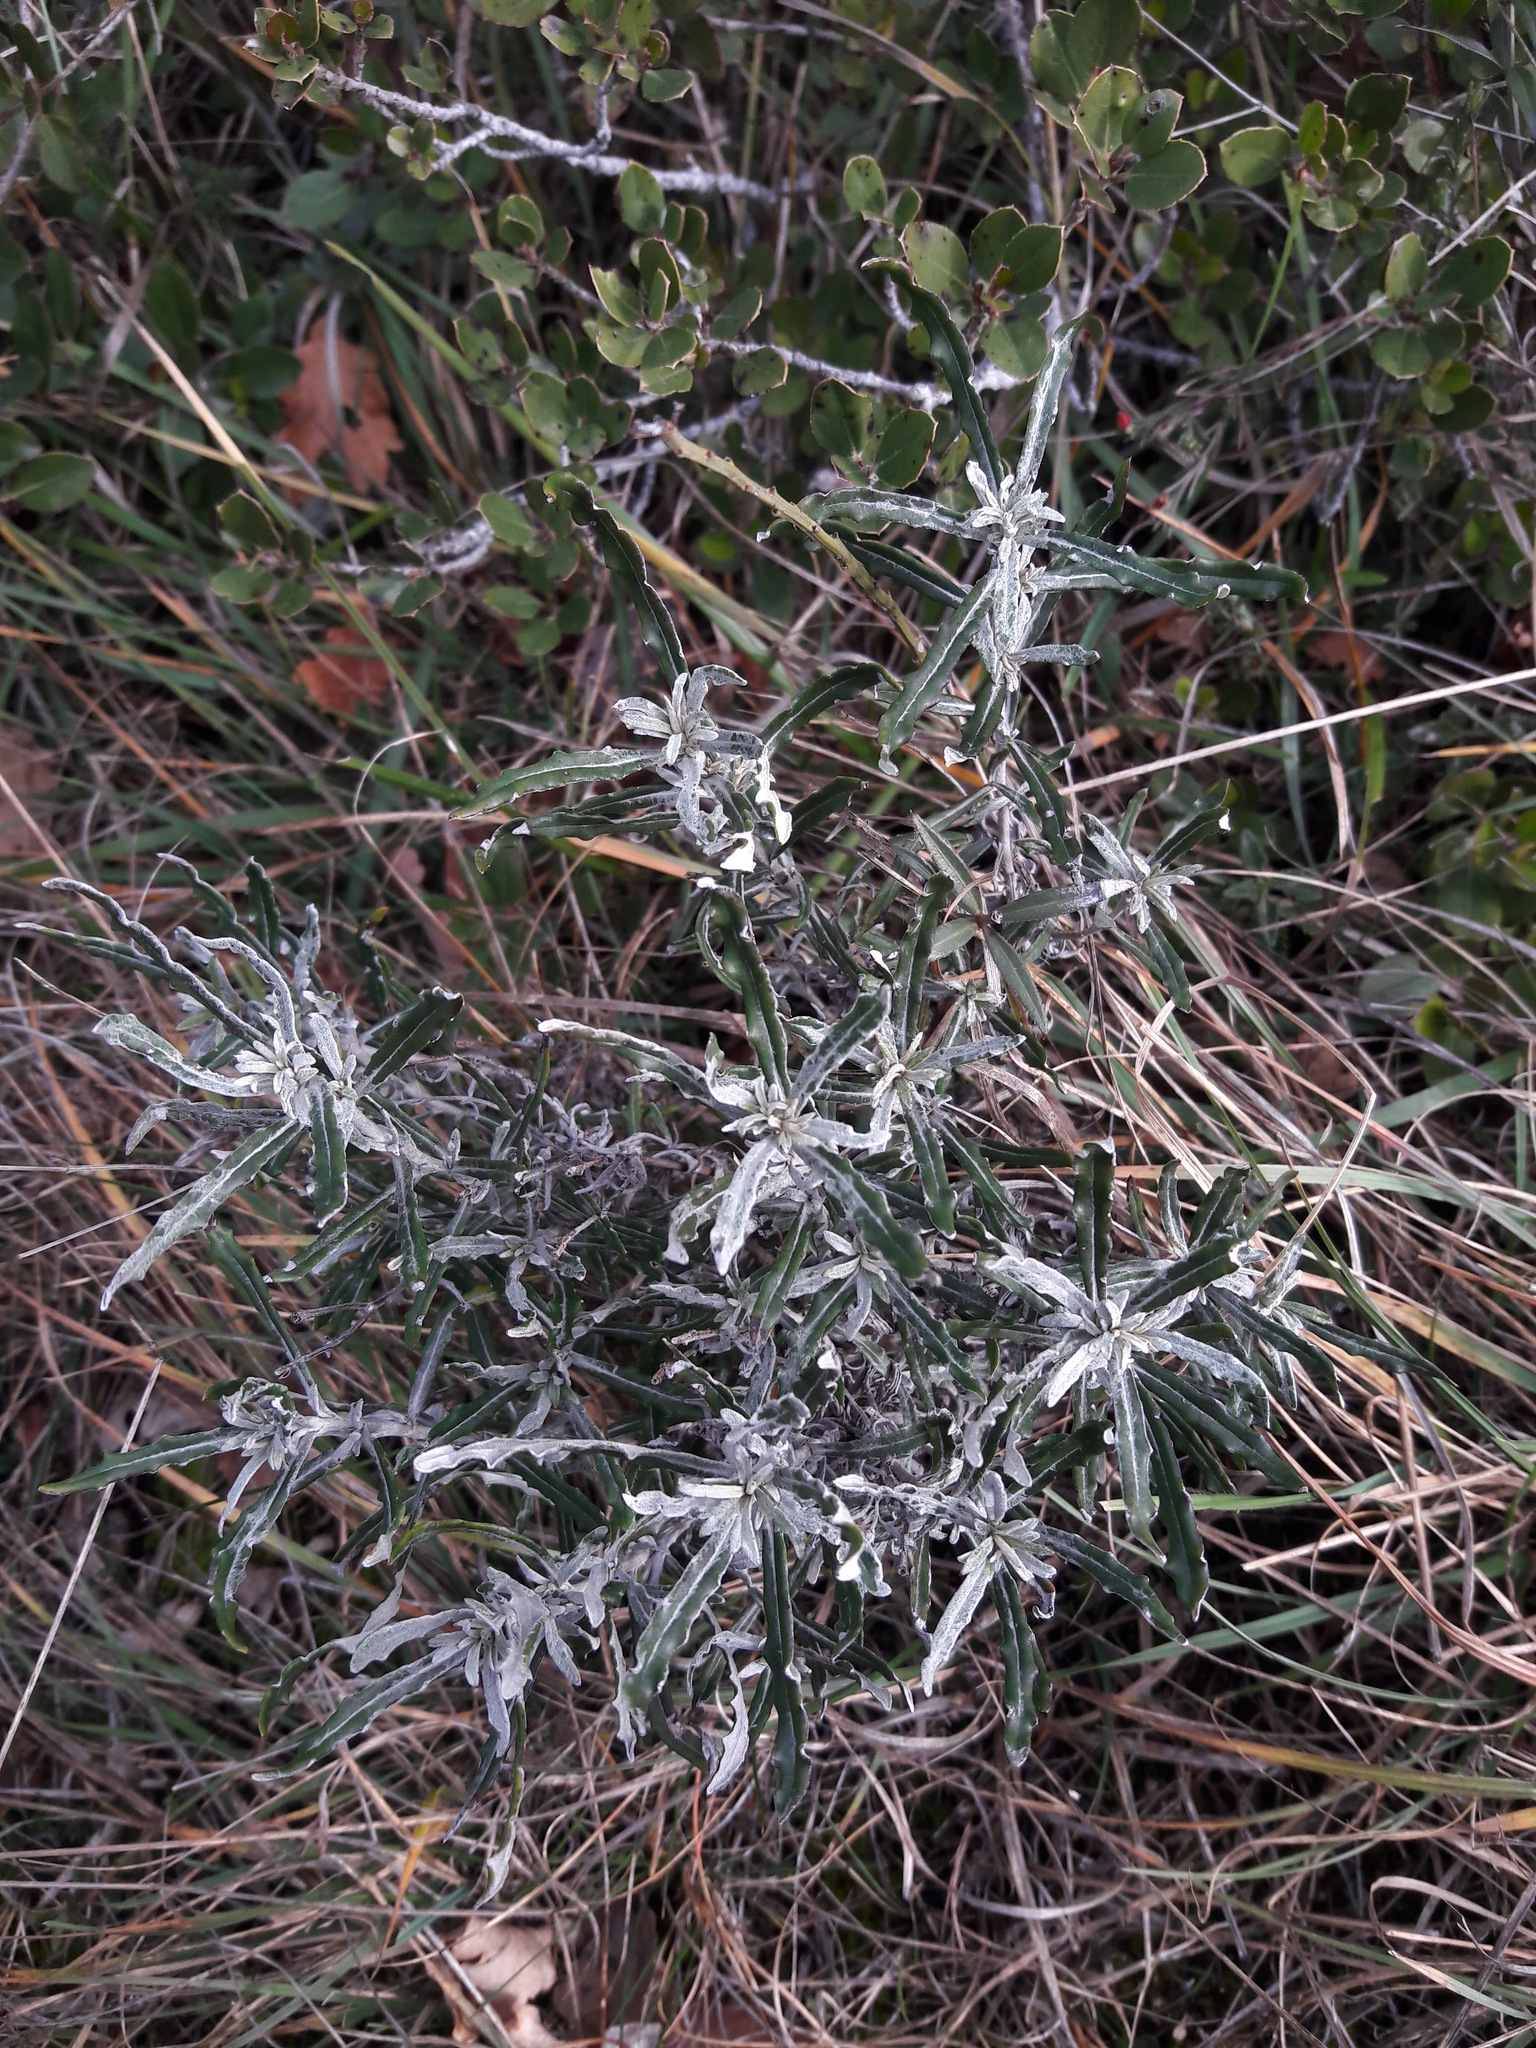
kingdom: Plantae
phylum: Tracheophyta
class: Magnoliopsida
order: Asterales
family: Asteraceae
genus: Staehelina
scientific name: Staehelina dubia
